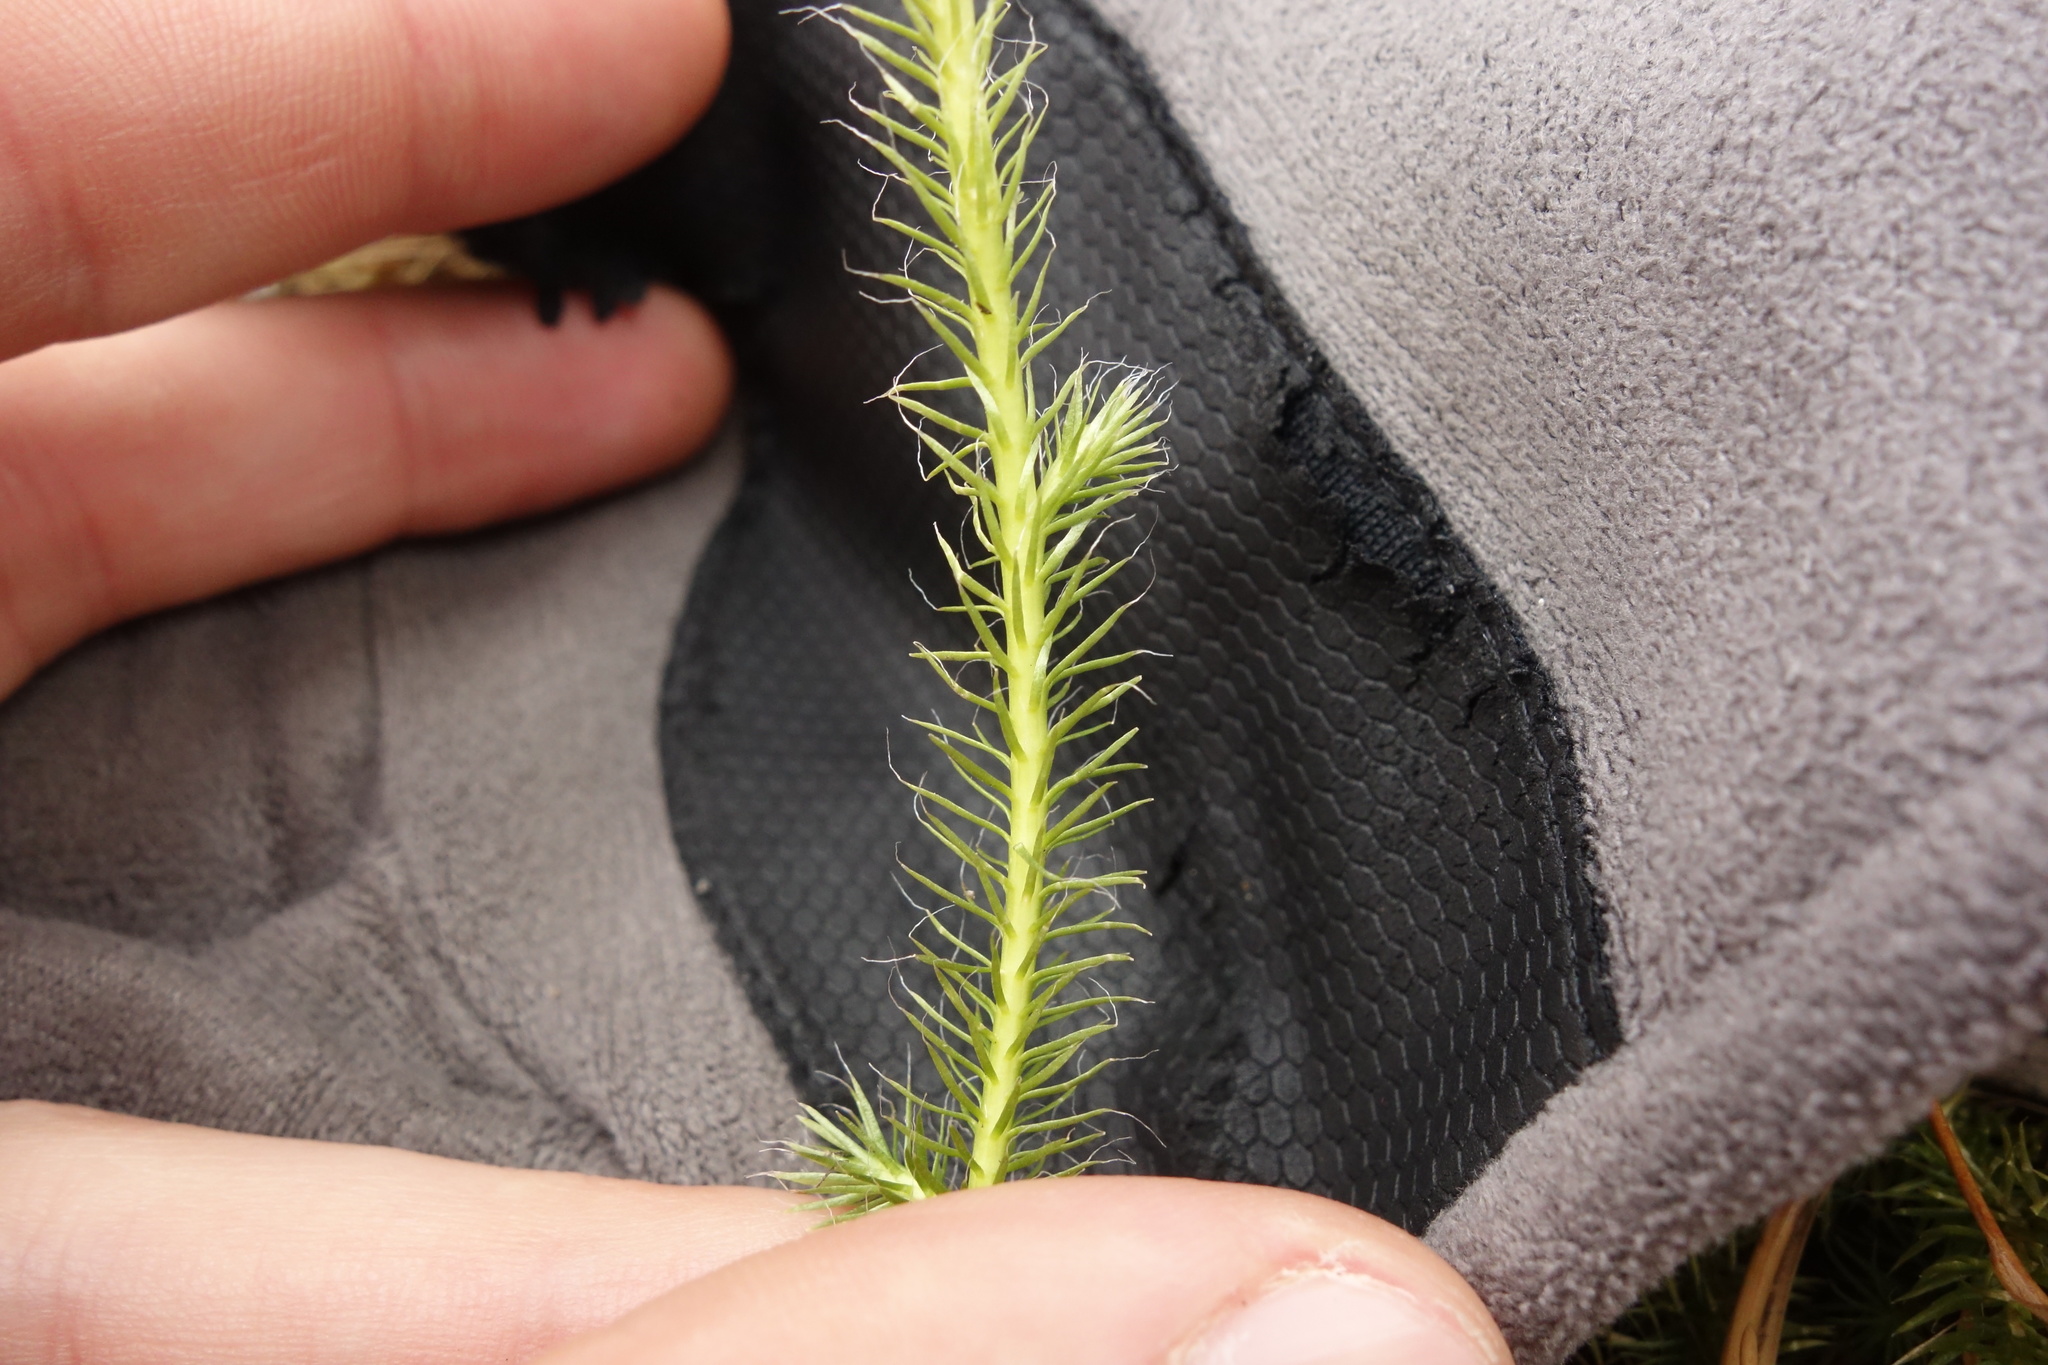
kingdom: Plantae
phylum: Tracheophyta
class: Lycopodiopsida
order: Lycopodiales
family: Lycopodiaceae
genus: Lycopodium
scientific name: Lycopodium clavatum
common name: Stag's-horn clubmoss
